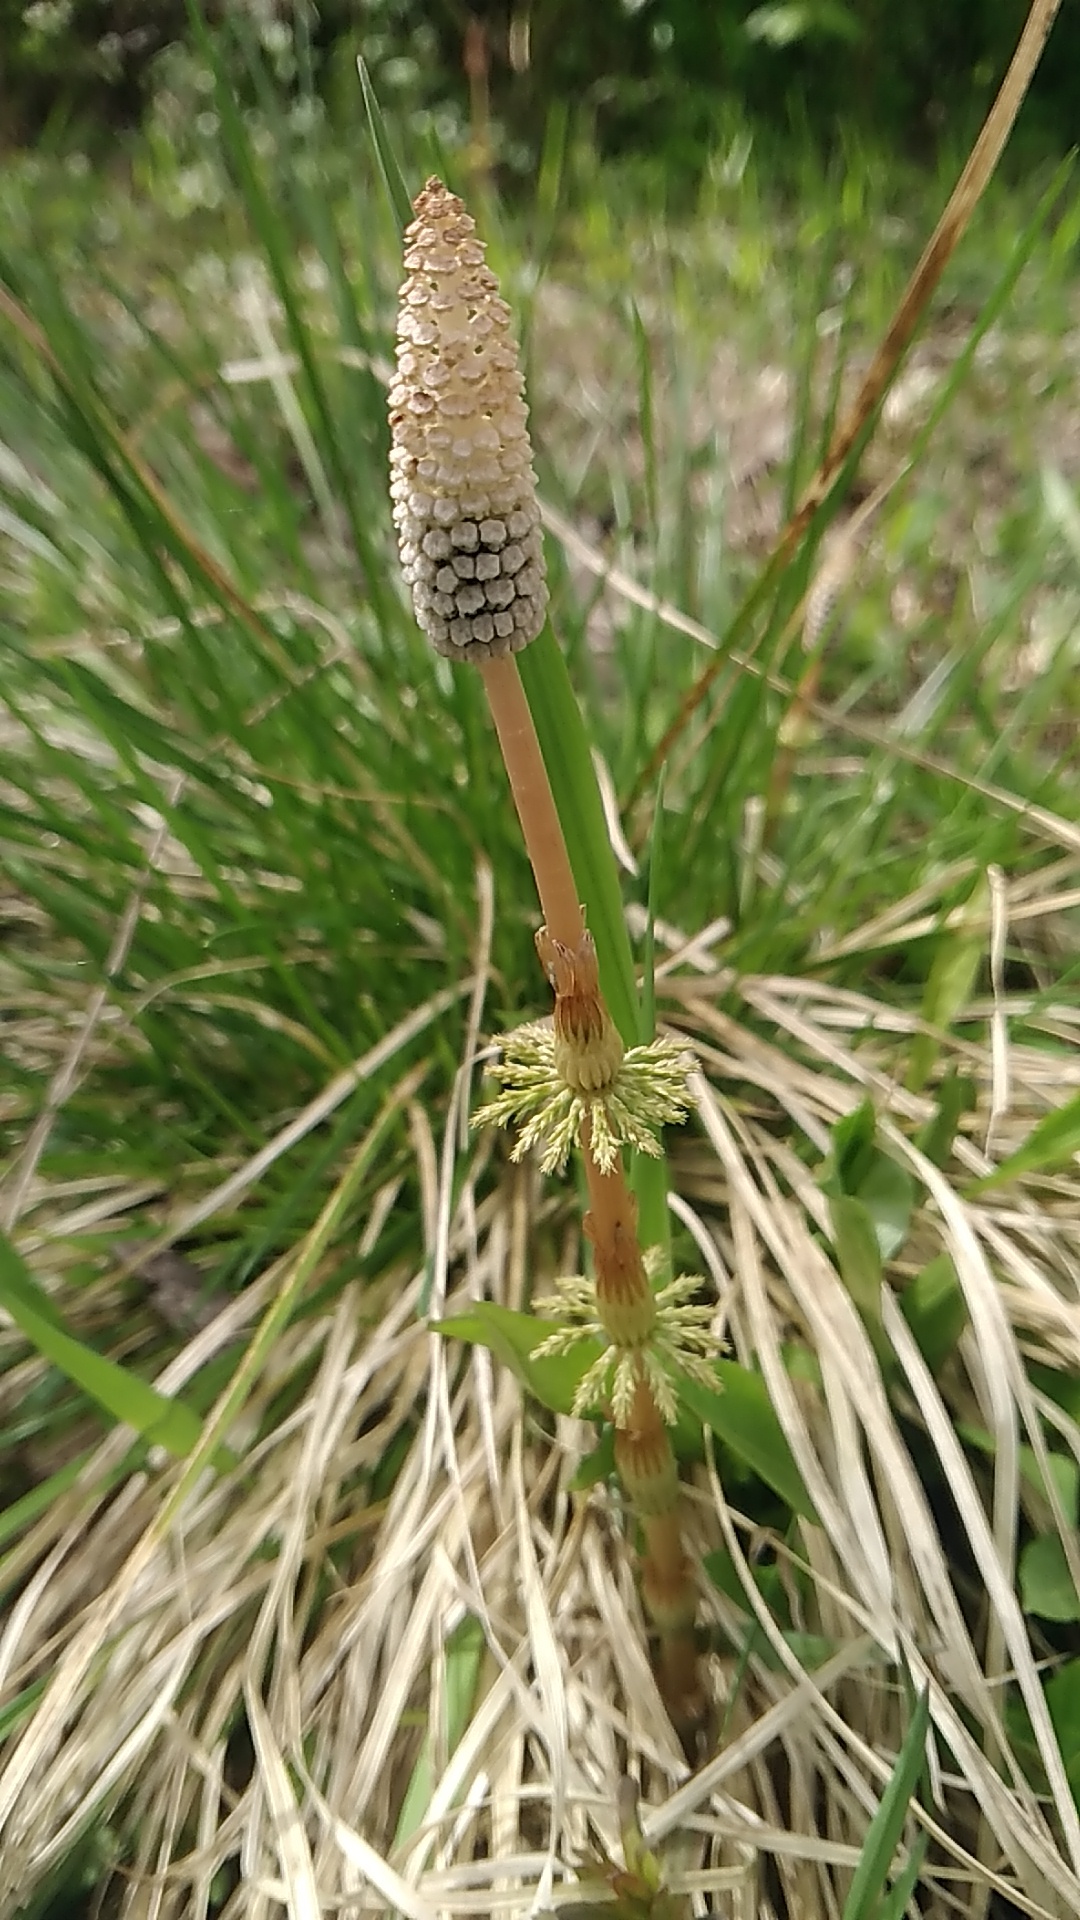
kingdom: Plantae
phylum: Tracheophyta
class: Polypodiopsida
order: Equisetales
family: Equisetaceae
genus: Equisetum
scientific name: Equisetum sylvaticum
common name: Wood horsetail
